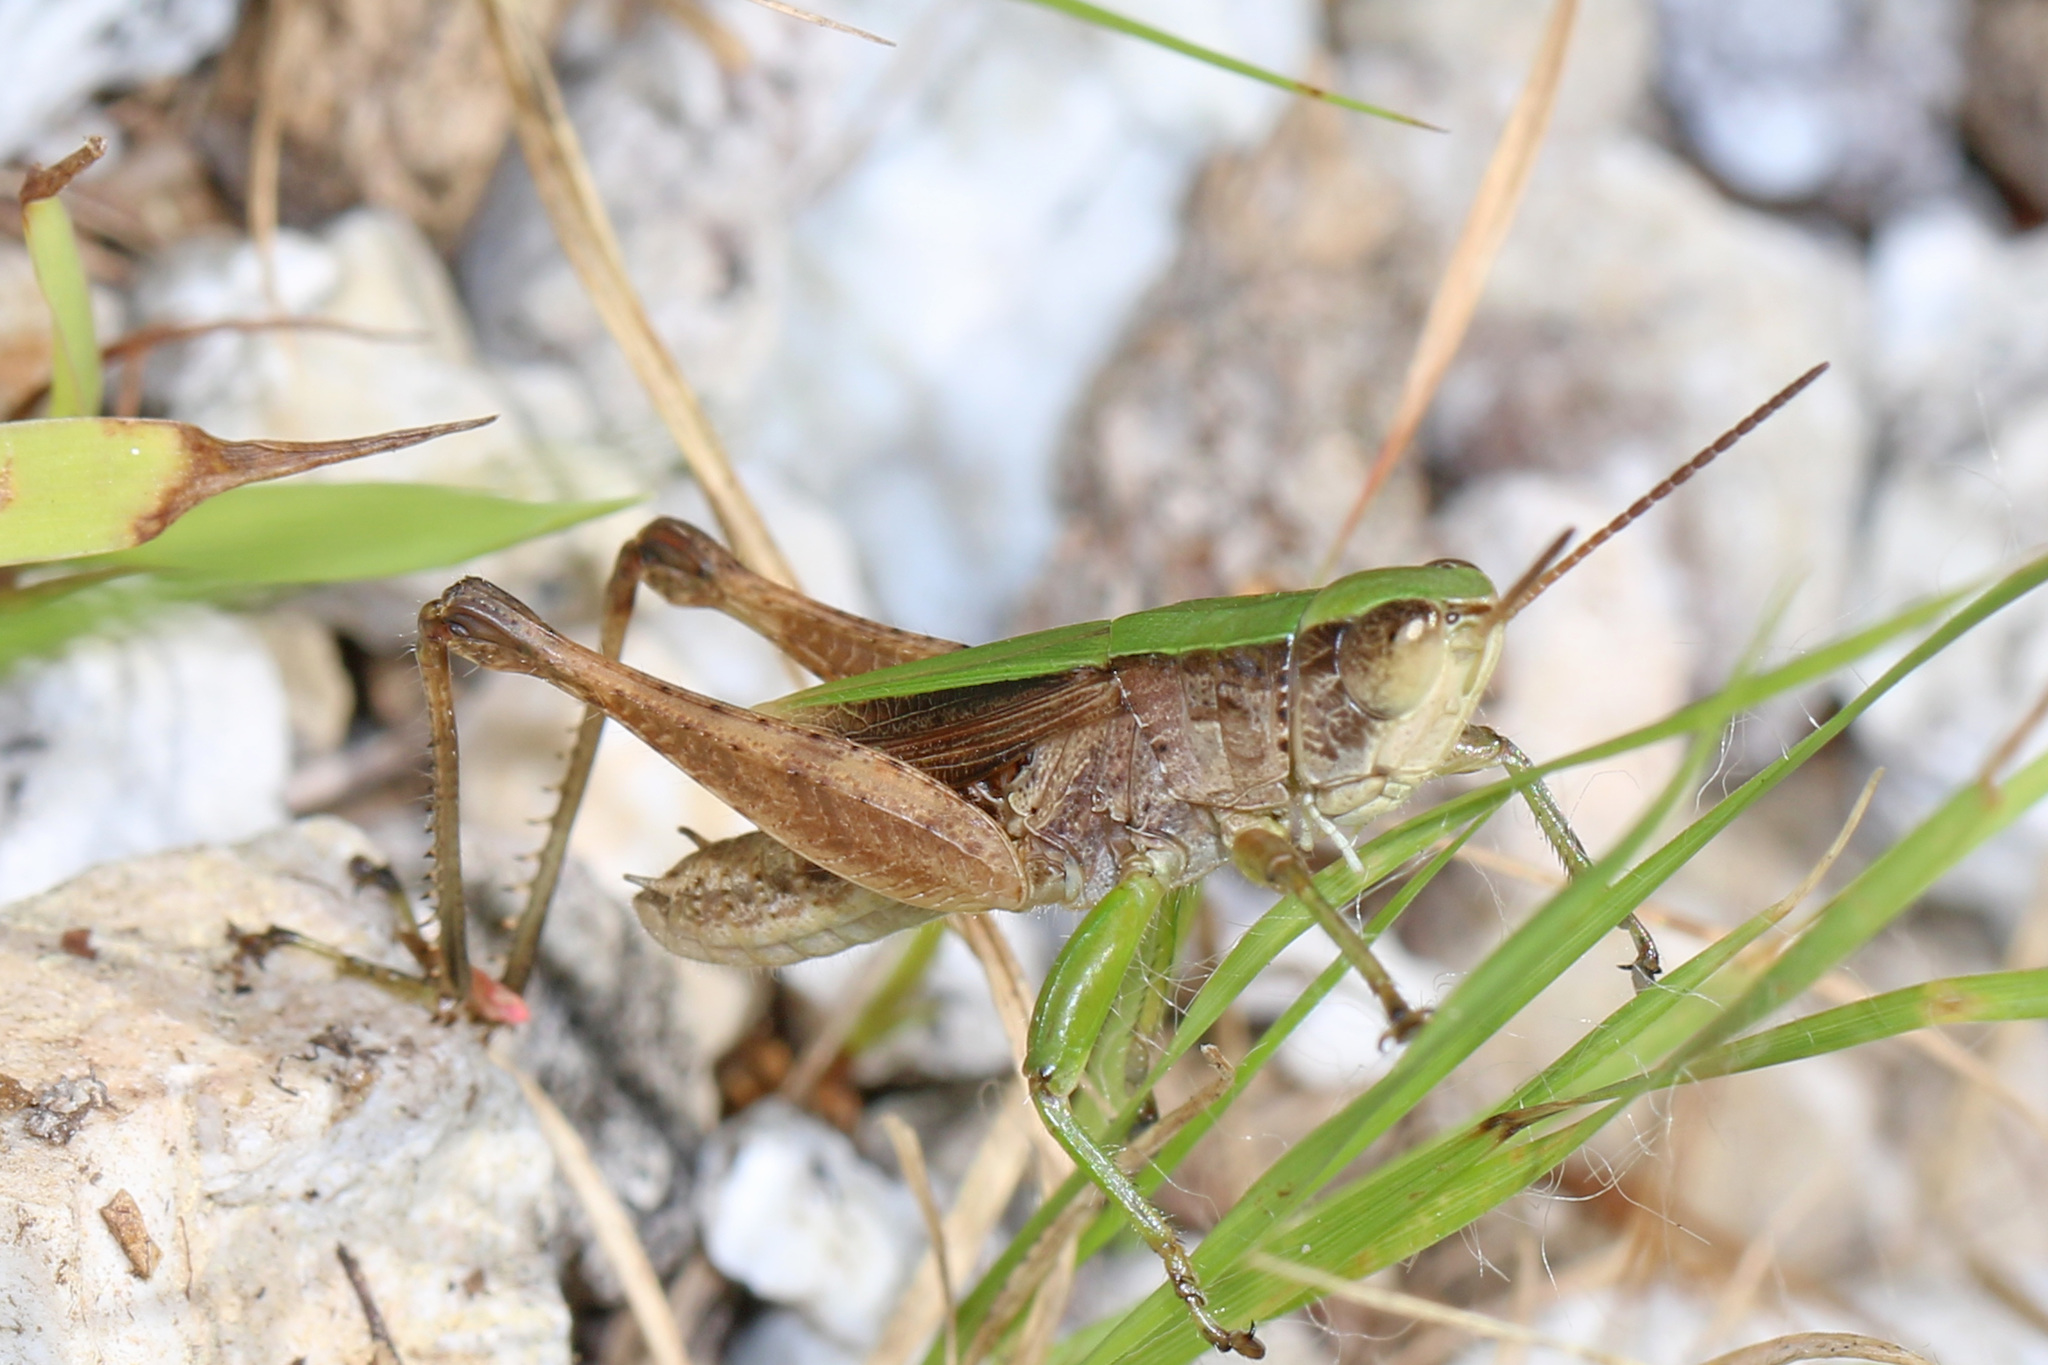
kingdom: Animalia
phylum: Arthropoda
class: Insecta
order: Orthoptera
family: Acrididae
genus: Dichromorpha
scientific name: Dichromorpha viridis
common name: Short-winged green grasshopper
